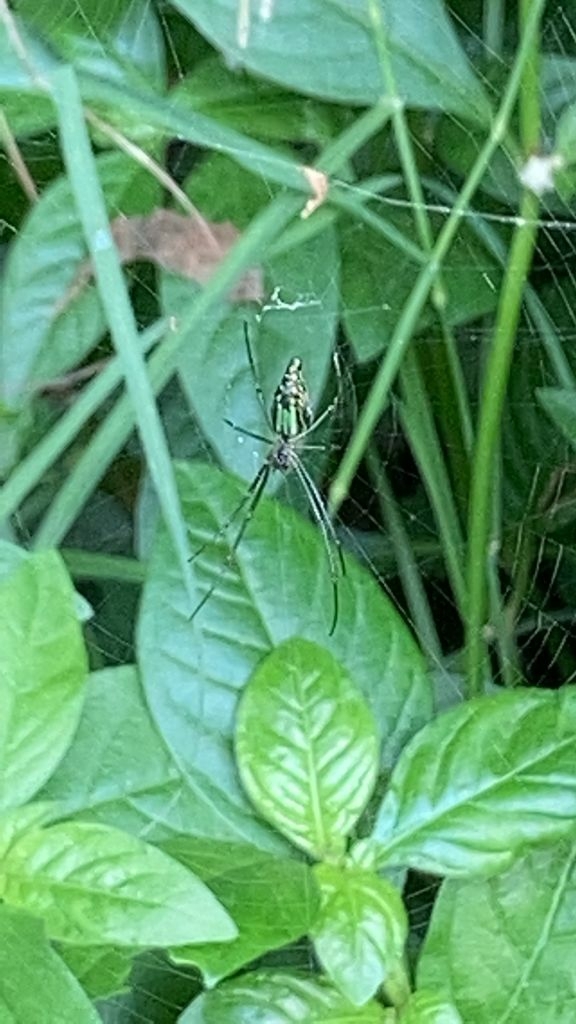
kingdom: Animalia
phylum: Arthropoda
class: Arachnida
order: Araneae
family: Tetragnathidae
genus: Leucauge
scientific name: Leucauge decorata
